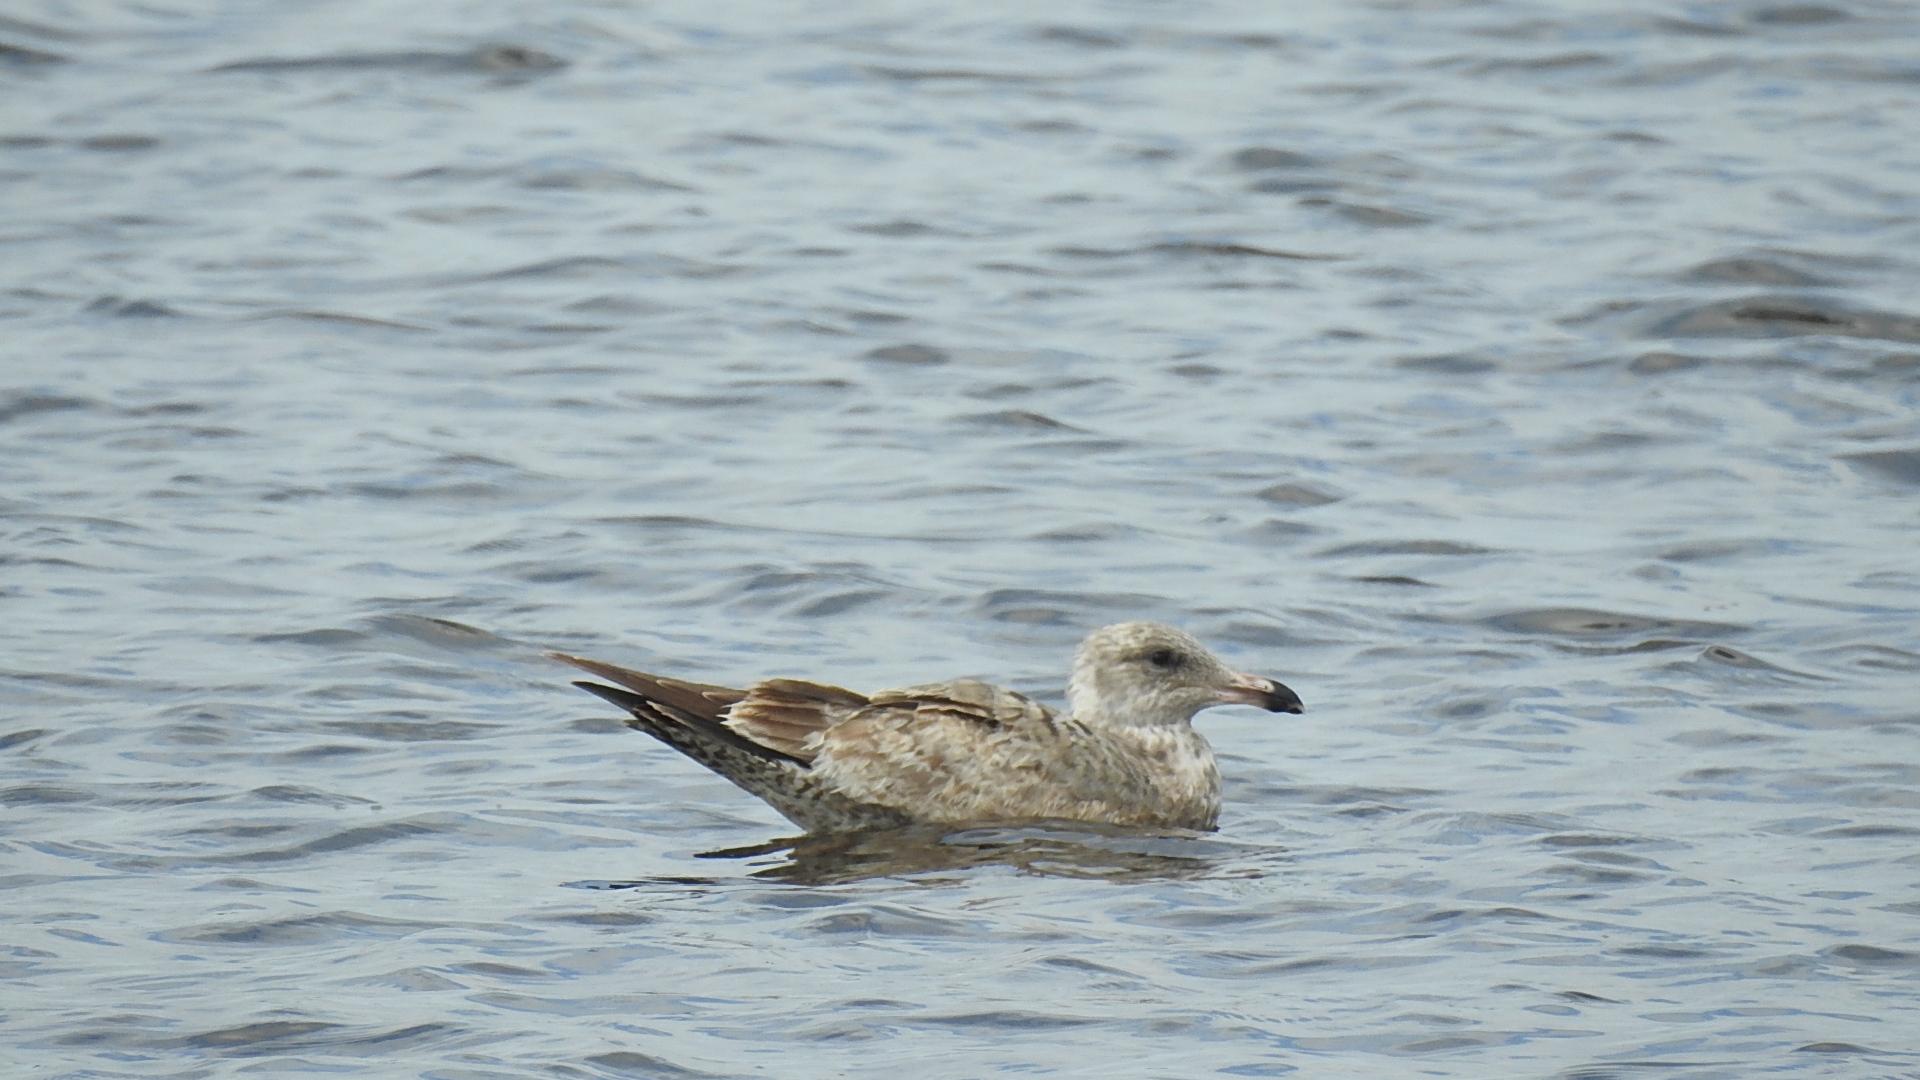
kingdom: Animalia
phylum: Chordata
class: Aves
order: Charadriiformes
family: Laridae
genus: Larus
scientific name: Larus argentatus
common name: Herring gull
